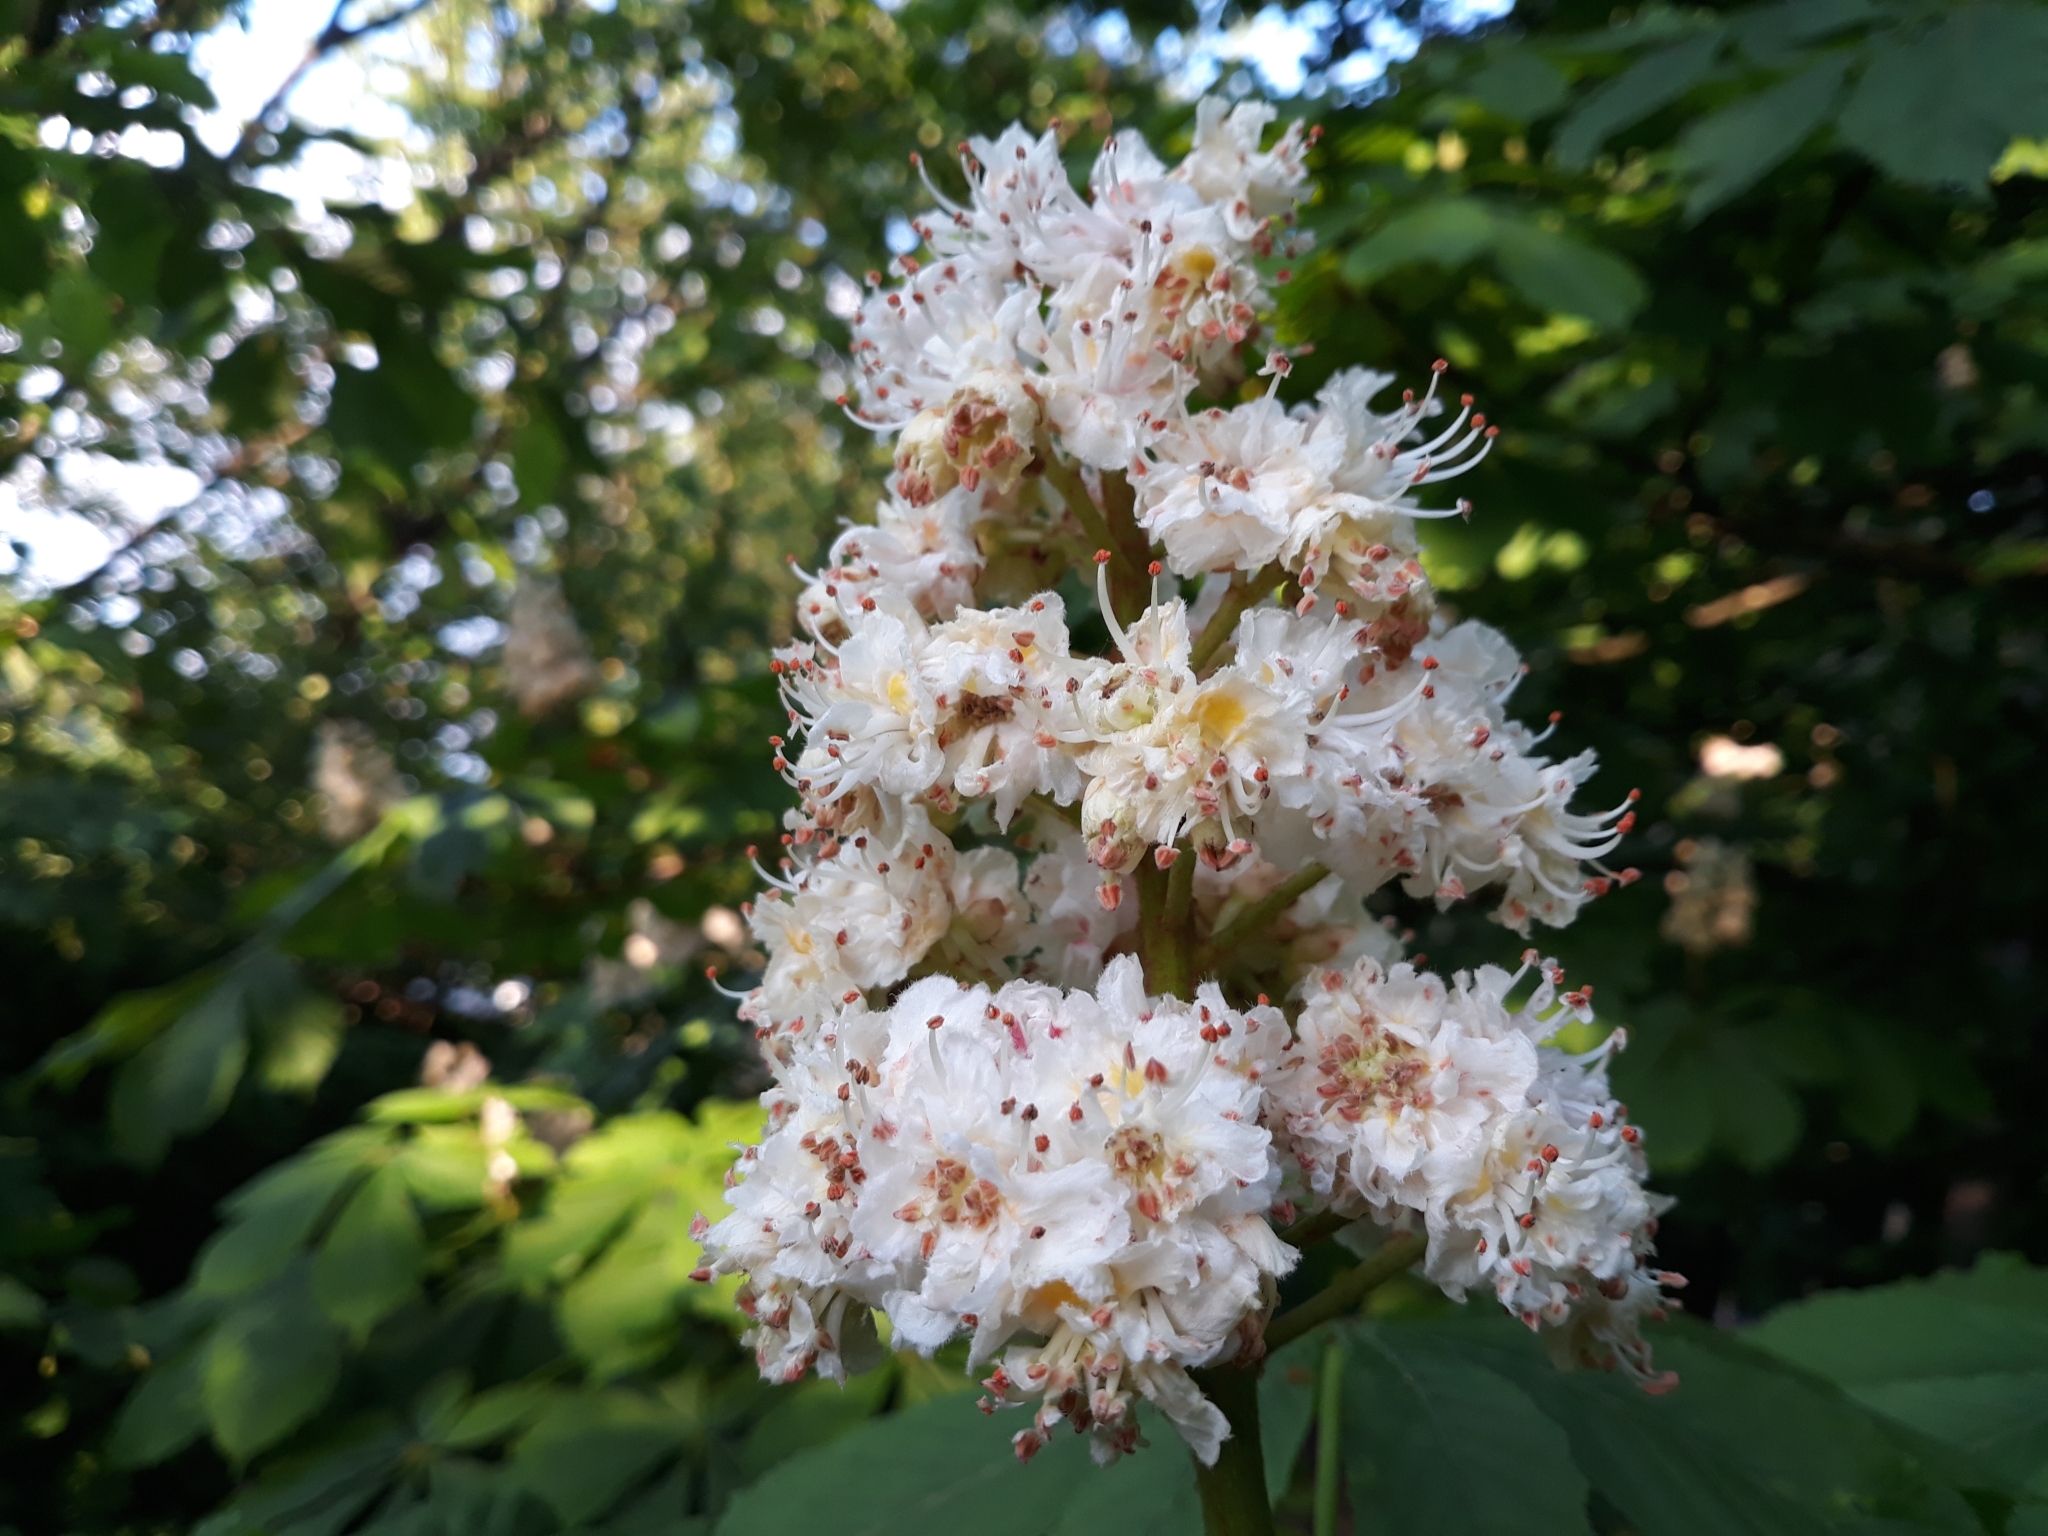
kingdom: Plantae
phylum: Tracheophyta
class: Magnoliopsida
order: Sapindales
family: Sapindaceae
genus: Aesculus
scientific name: Aesculus hippocastanum
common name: Horse-chestnut
